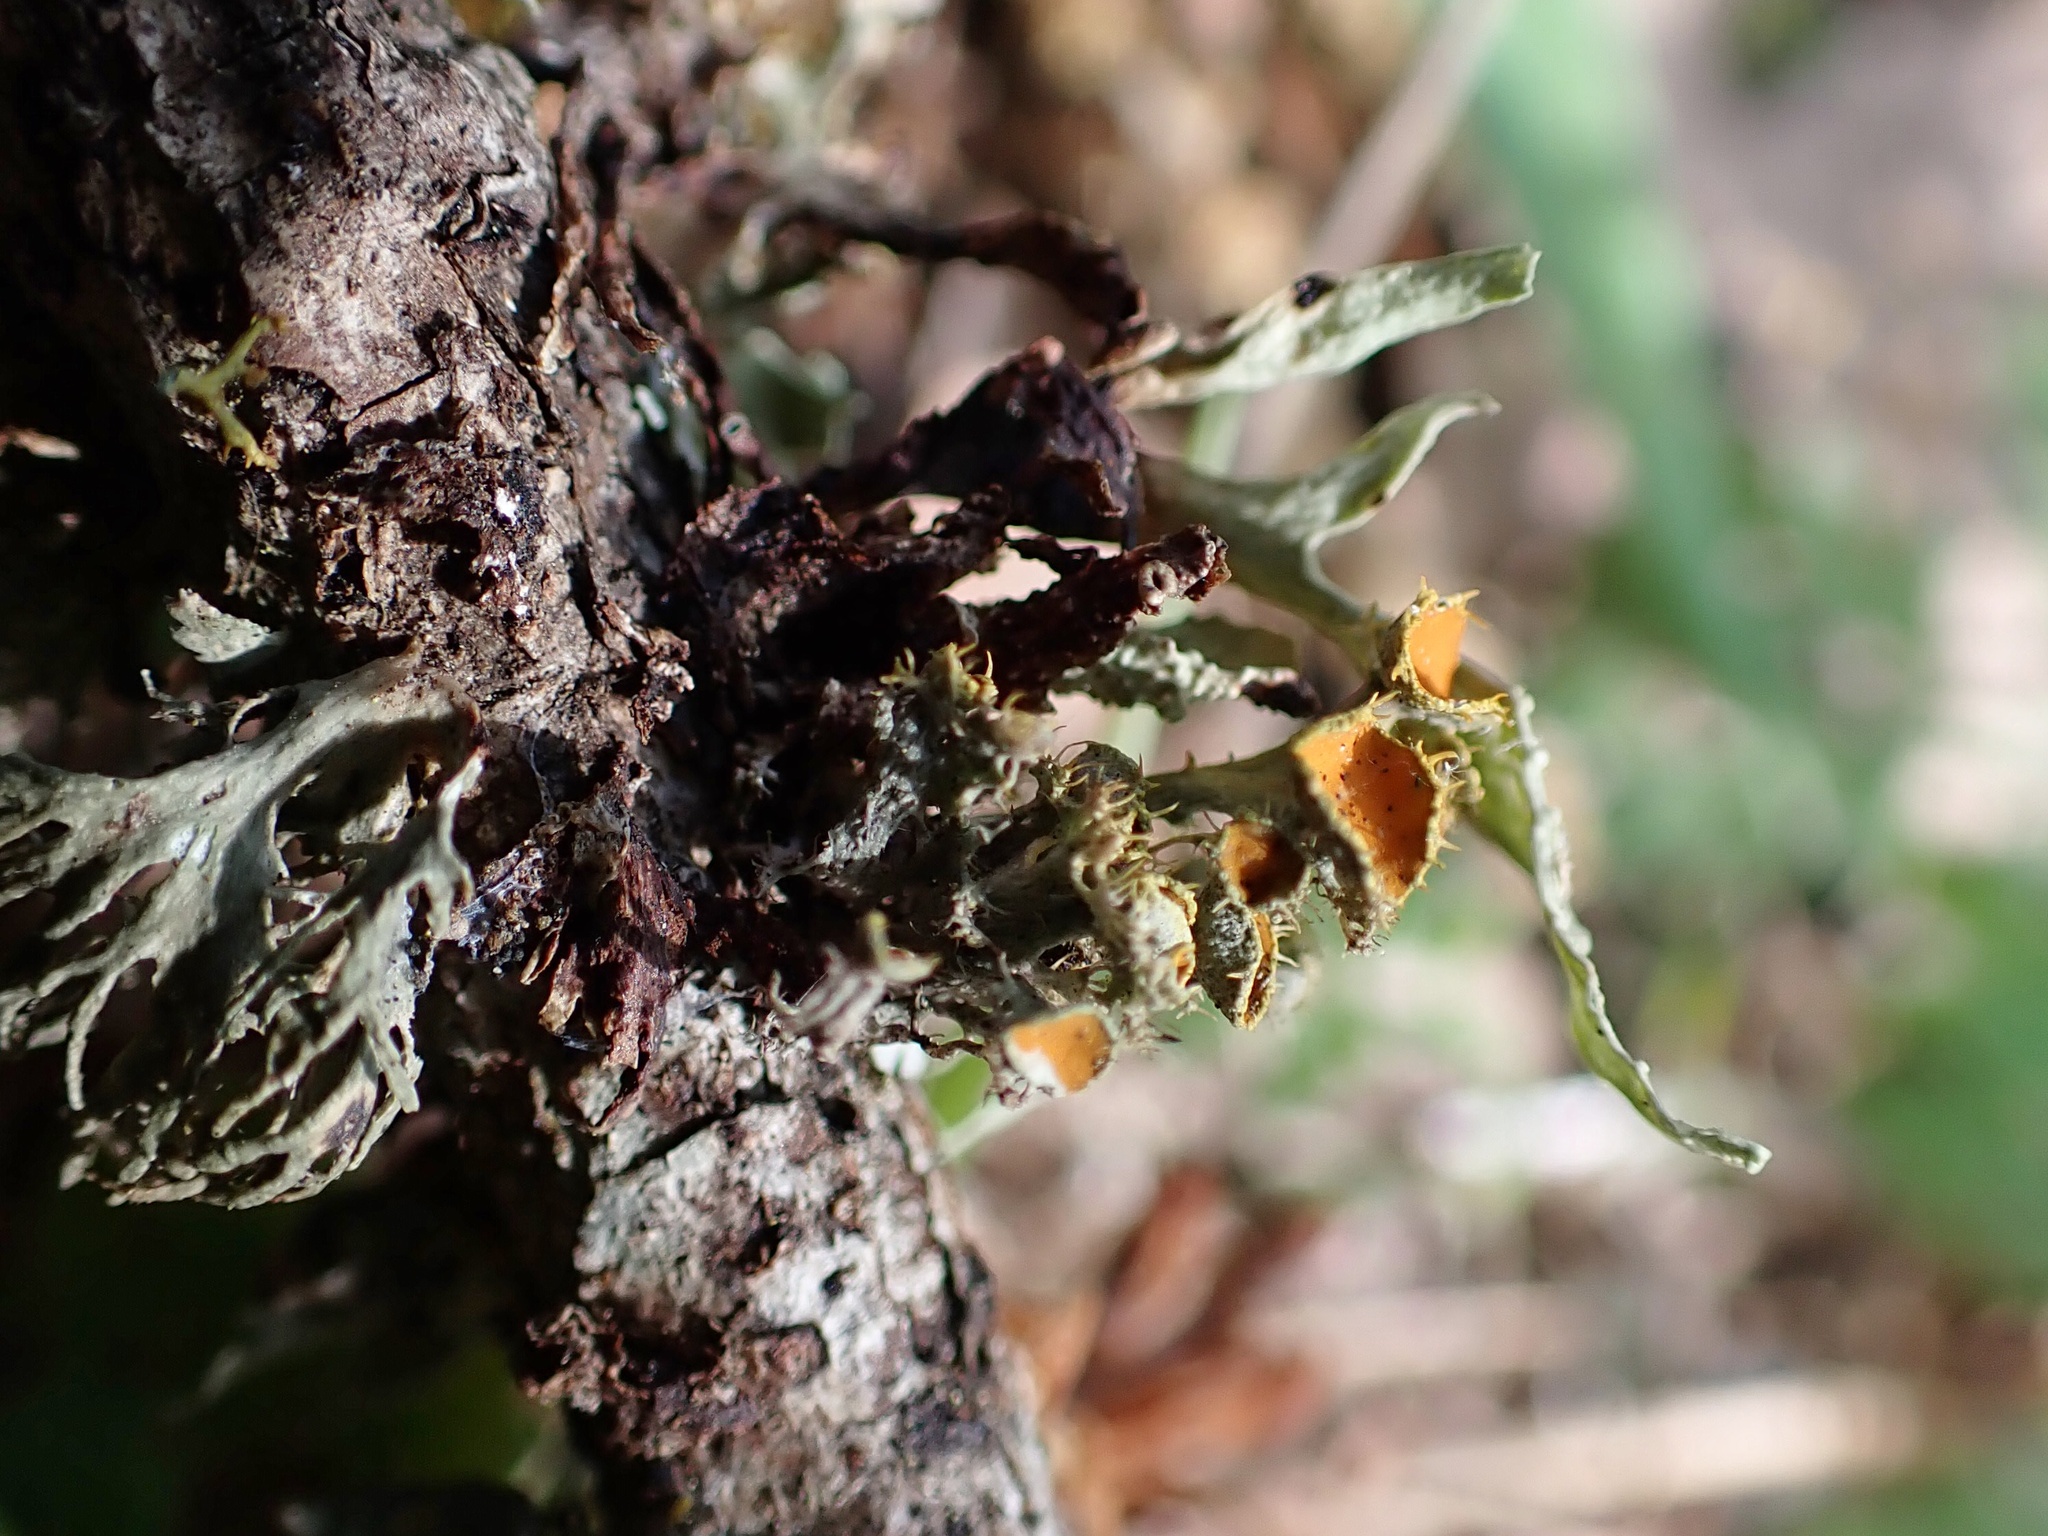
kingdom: Fungi
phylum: Ascomycota
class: Lecanoromycetes
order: Teloschistales
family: Teloschistaceae
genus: Niorma
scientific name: Niorma chrysophthalma
